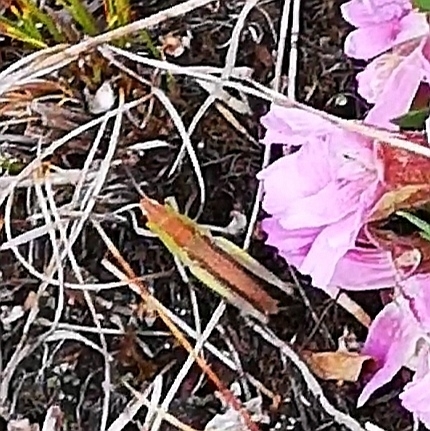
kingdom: Animalia
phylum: Arthropoda
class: Insecta
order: Orthoptera
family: Acrididae
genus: Pseudochorthippus
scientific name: Pseudochorthippus parallelus
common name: Meadow grasshopper
